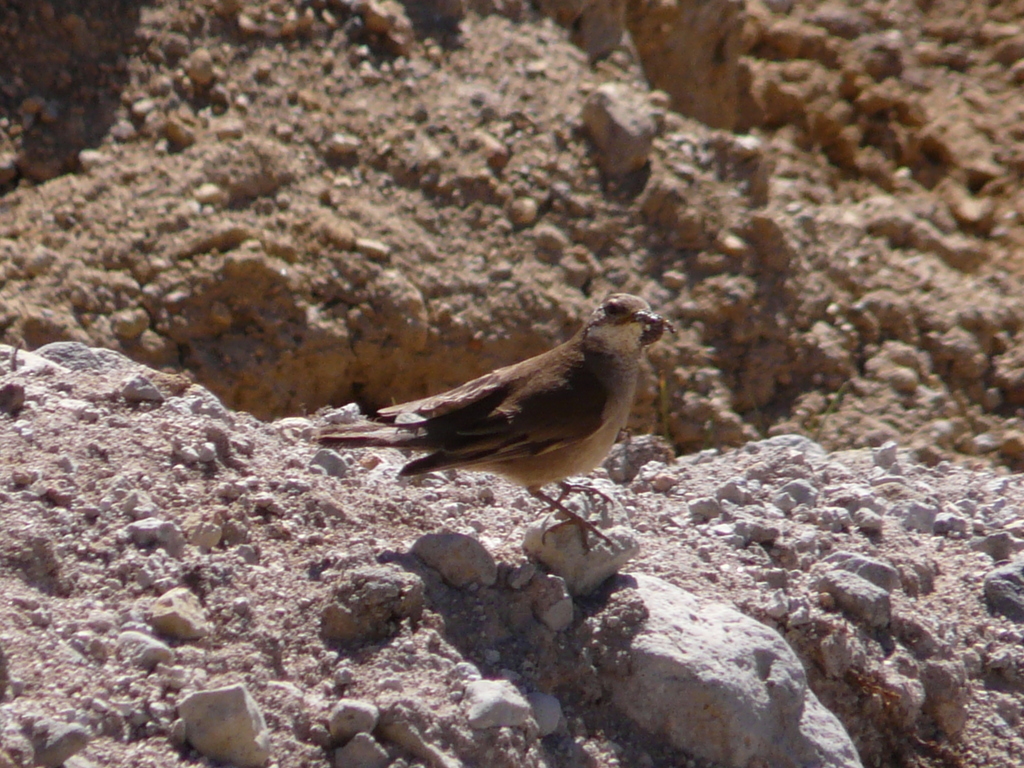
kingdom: Animalia
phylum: Chordata
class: Aves
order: Passeriformes
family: Furnariidae
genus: Cinclodes
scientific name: Cinclodes fuscus
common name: Buff-winged cinclodes
